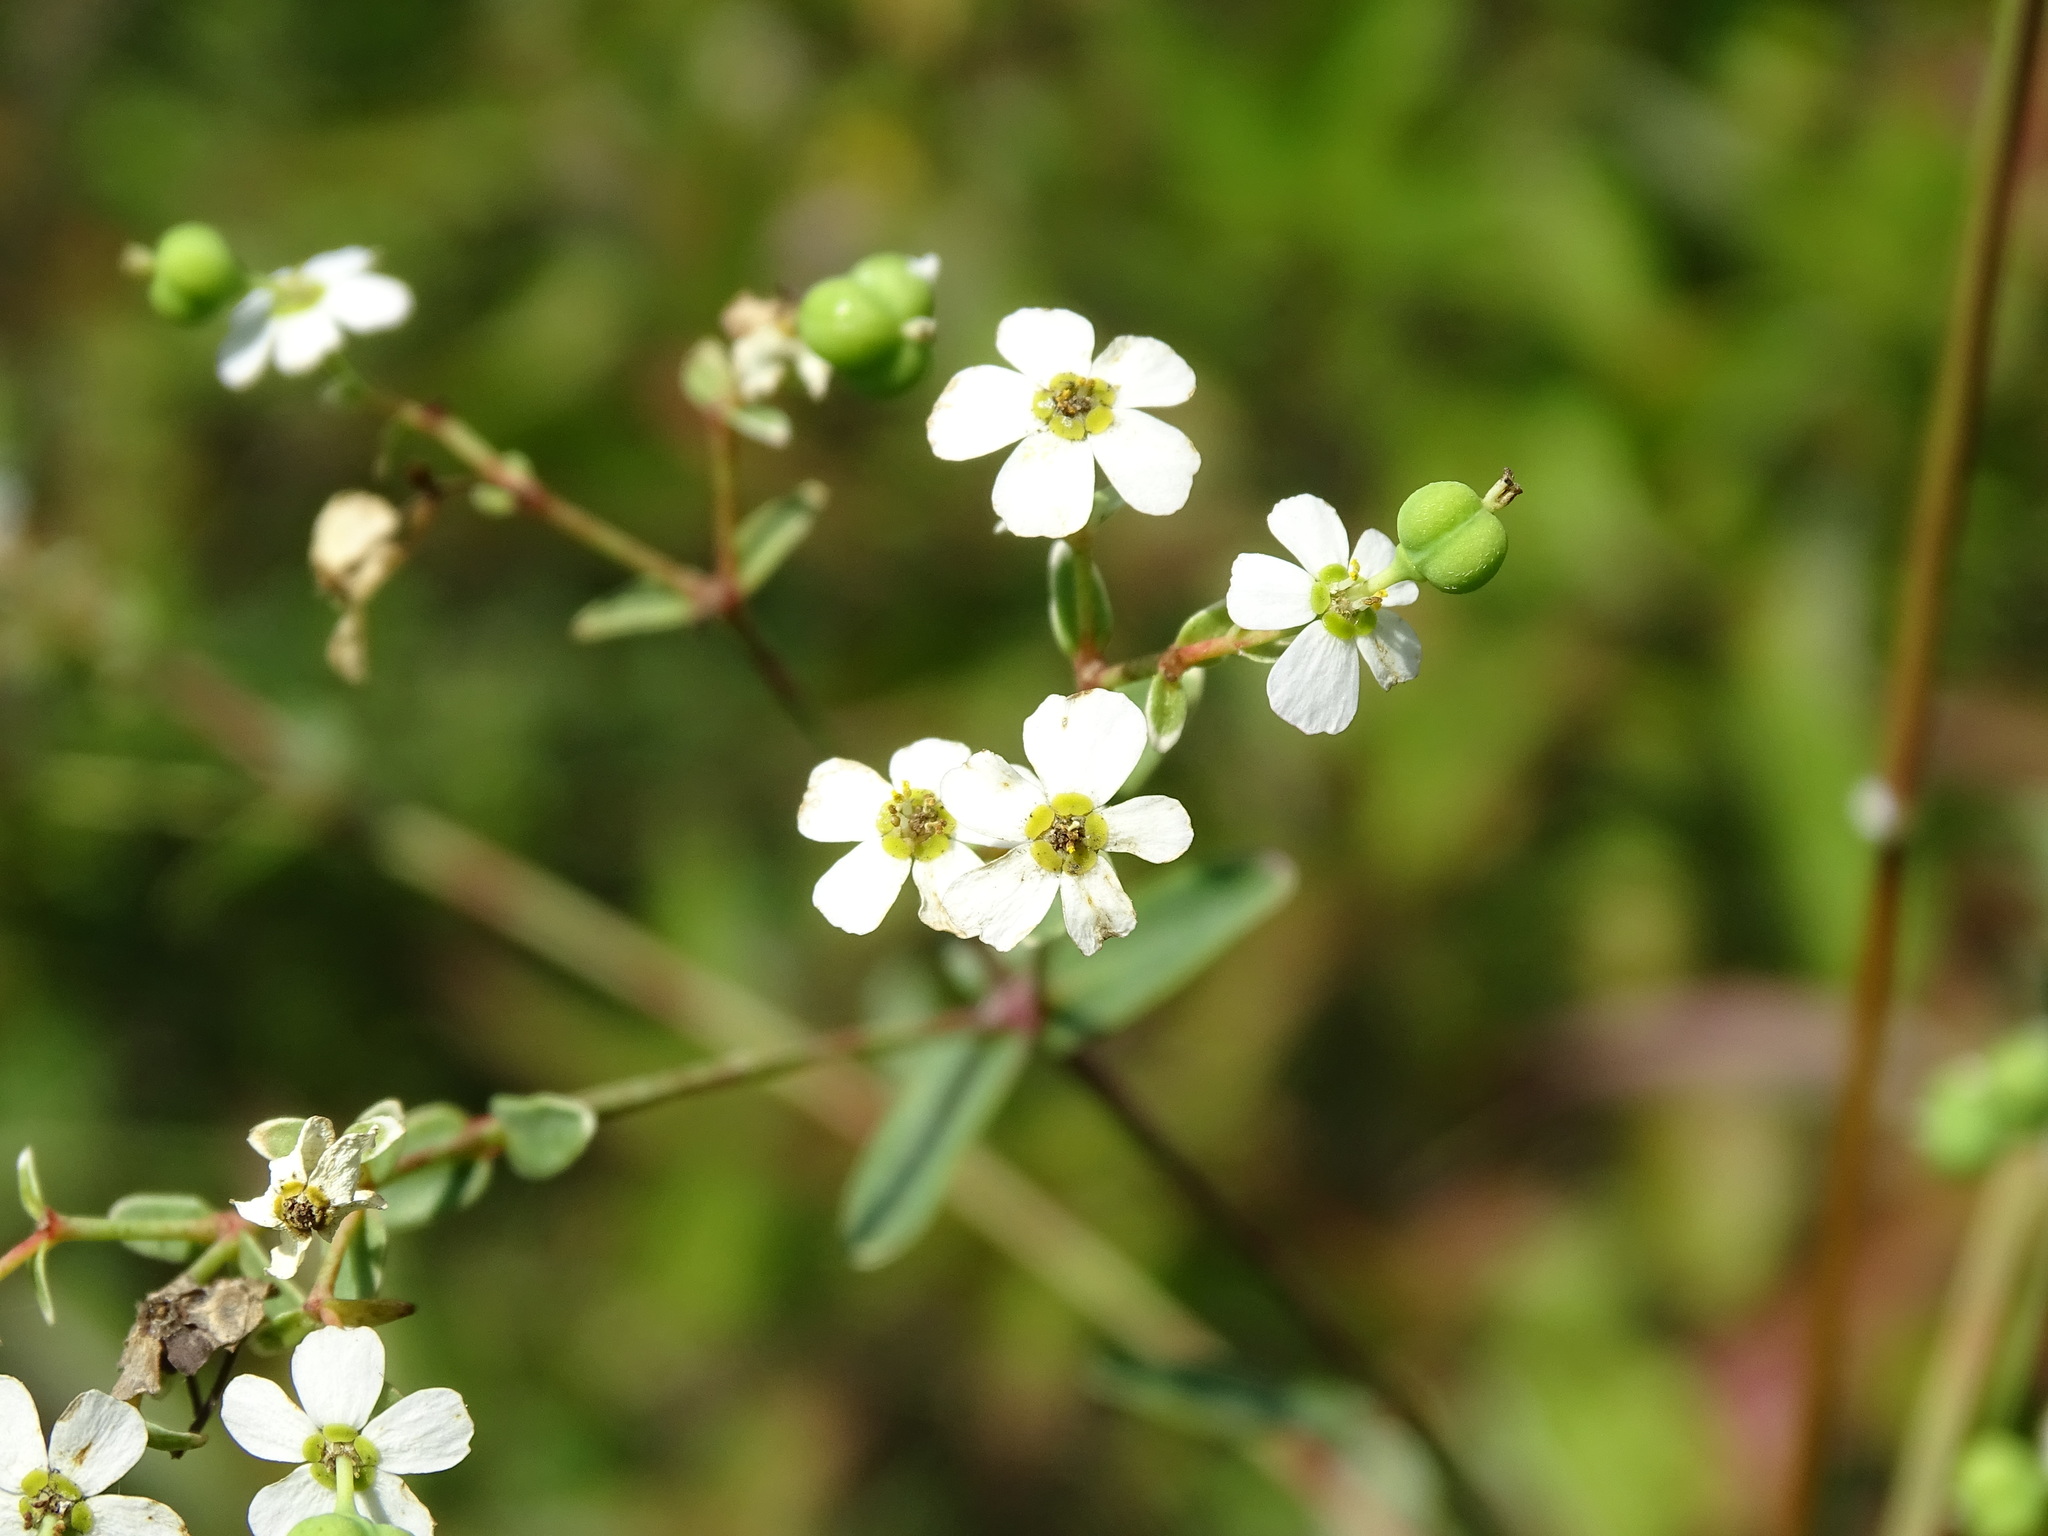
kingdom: Plantae
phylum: Tracheophyta
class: Magnoliopsida
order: Malpighiales
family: Euphorbiaceae
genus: Euphorbia
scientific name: Euphorbia corollata
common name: Flowering spurge
